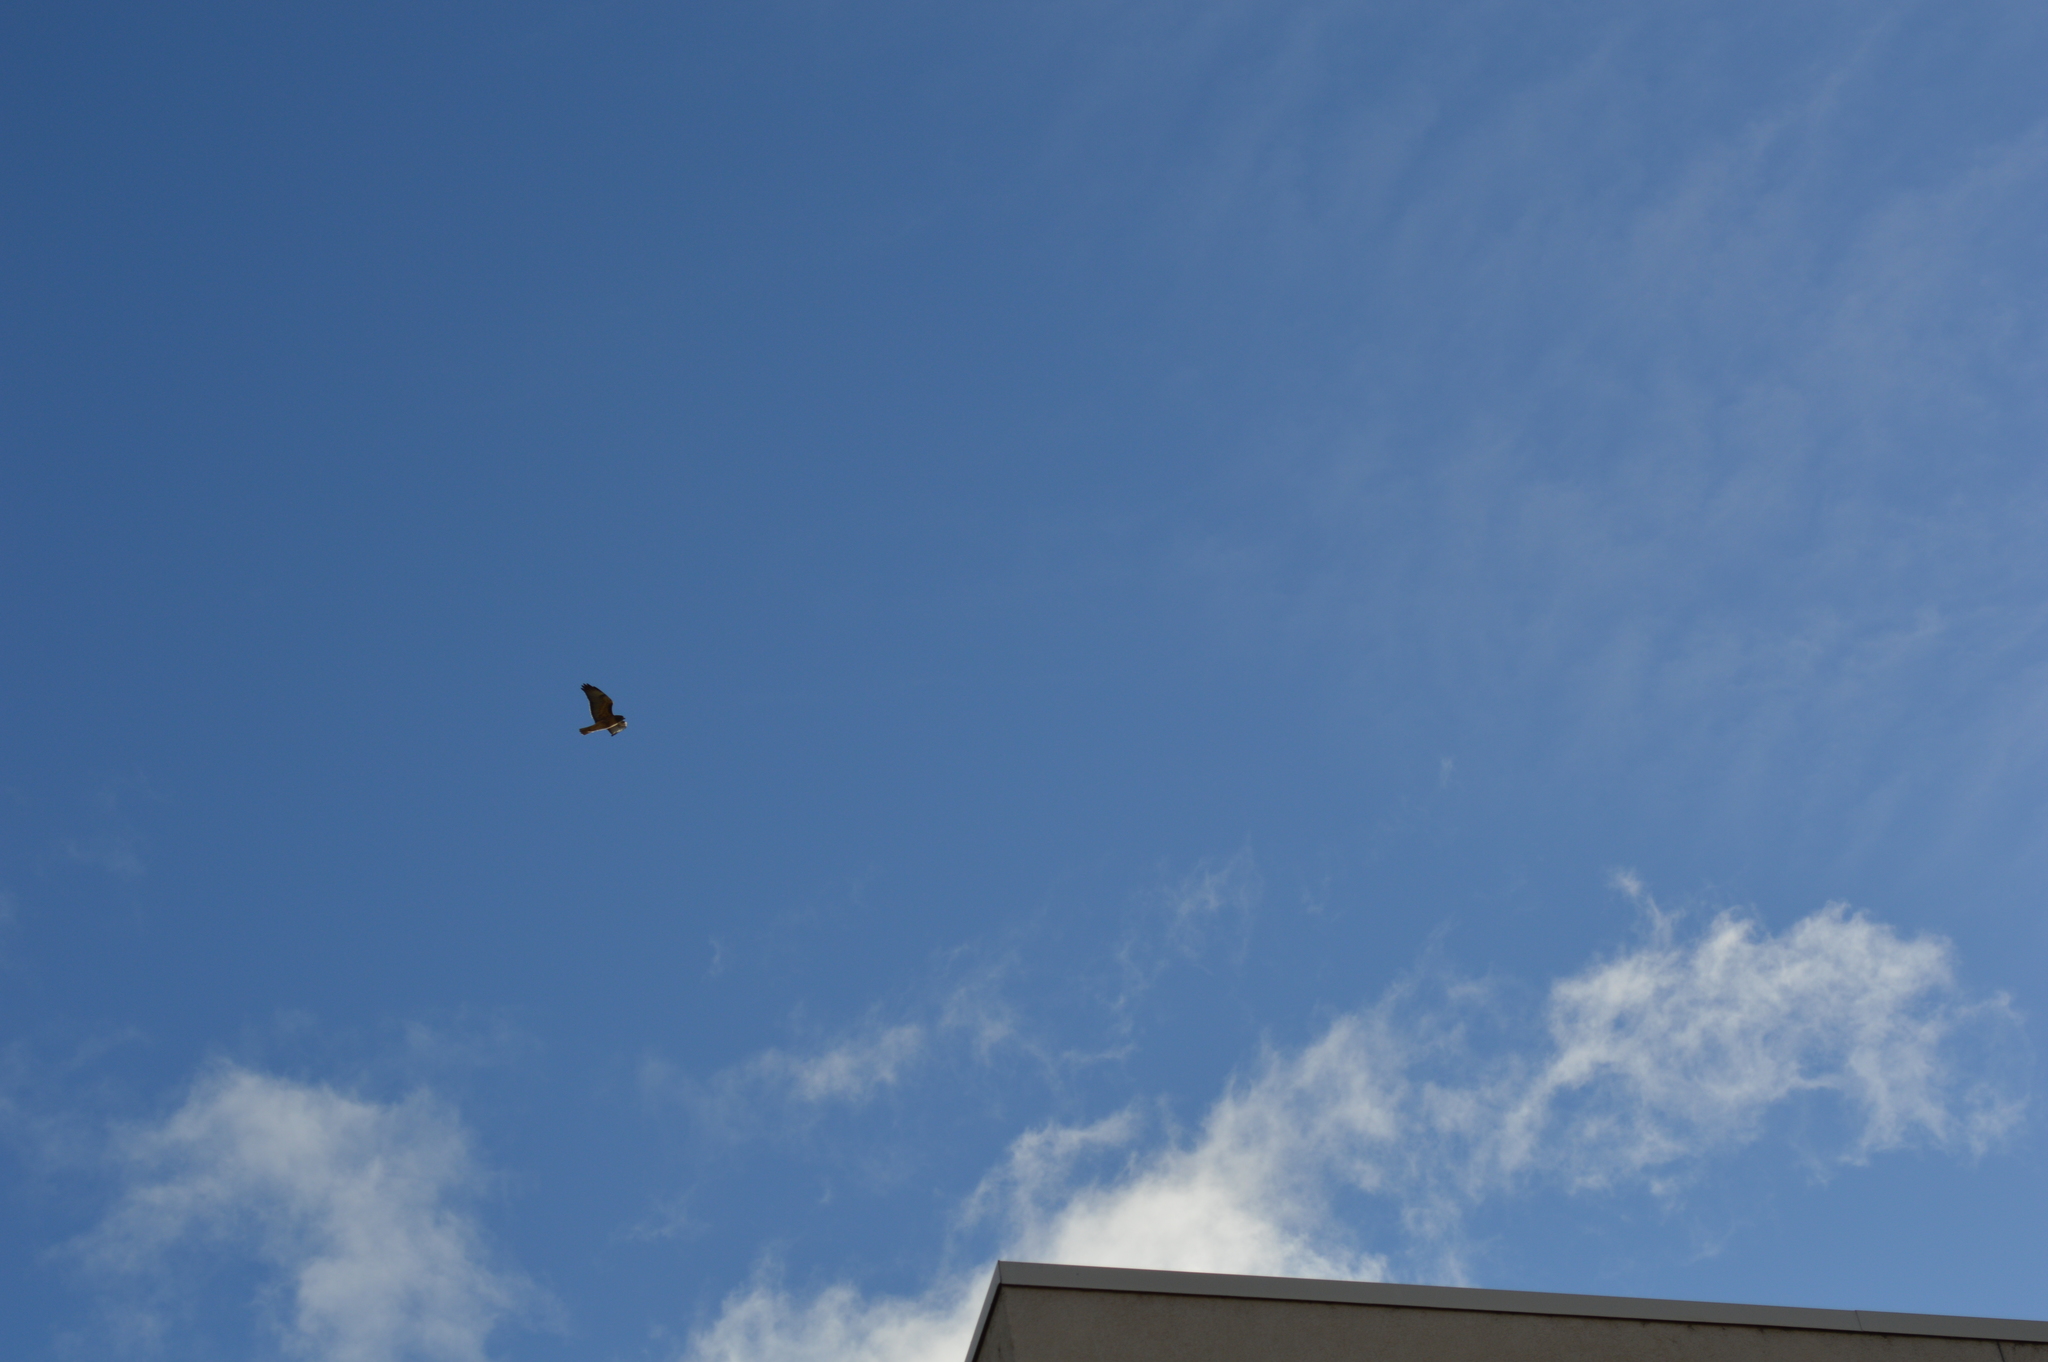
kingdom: Animalia
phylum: Chordata
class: Aves
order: Accipitriformes
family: Accipitridae
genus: Buteo
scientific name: Buteo jamaicensis
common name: Red-tailed hawk
